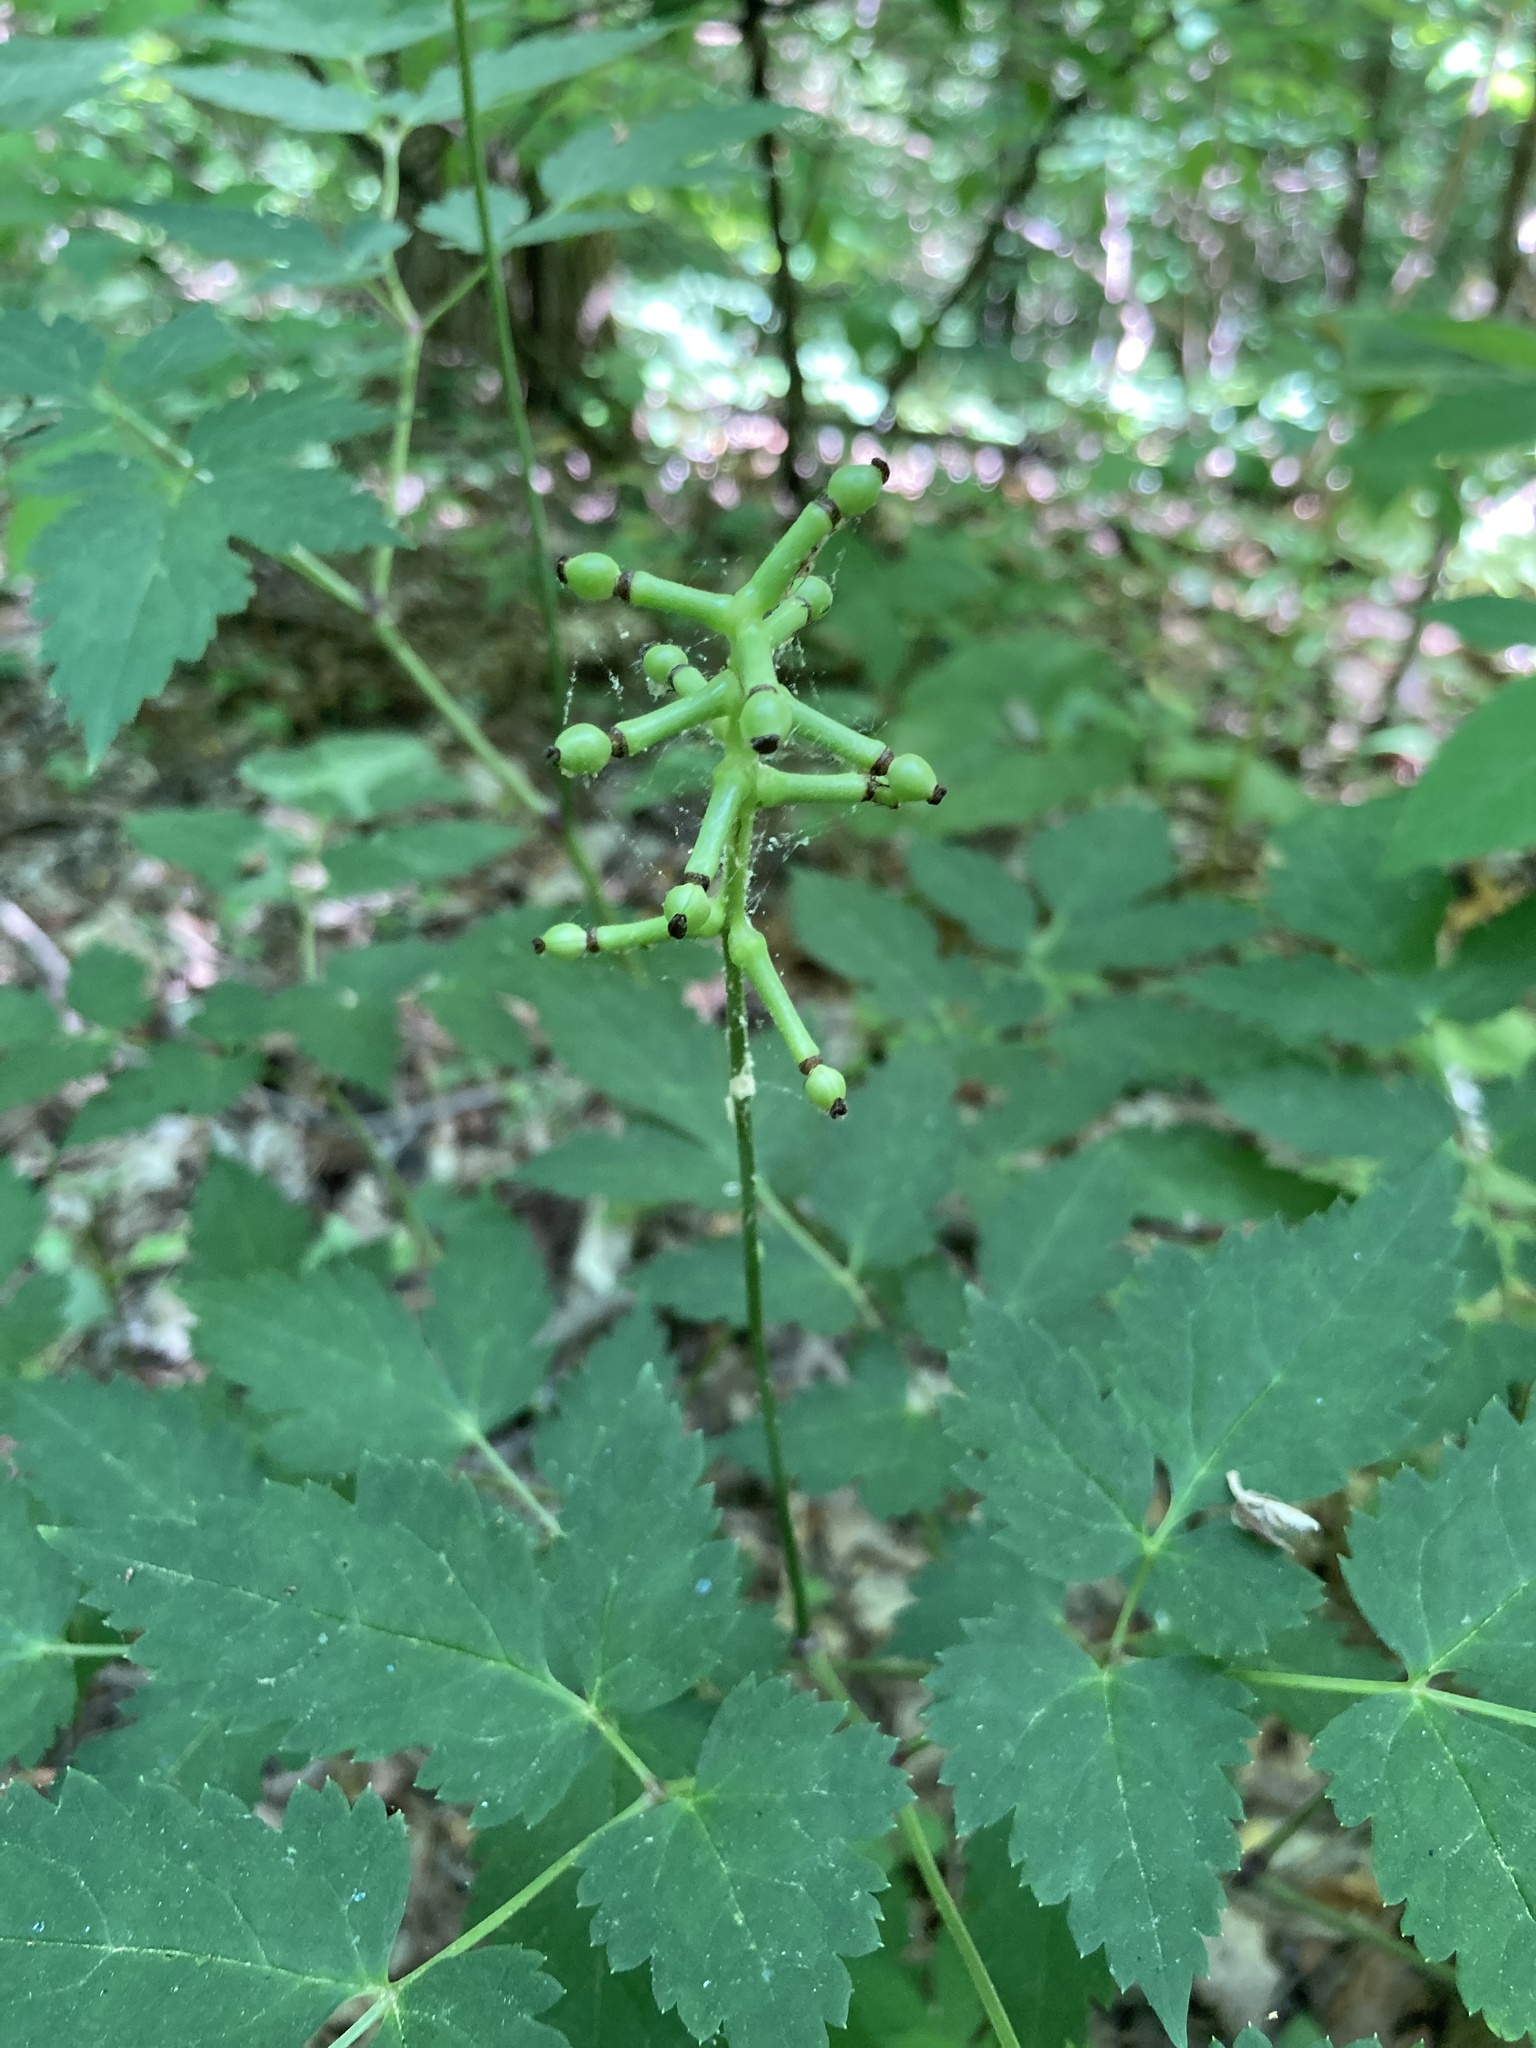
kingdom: Plantae
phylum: Tracheophyta
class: Magnoliopsida
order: Ranunculales
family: Ranunculaceae
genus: Actaea
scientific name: Actaea pachypoda
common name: Doll's-eyes
